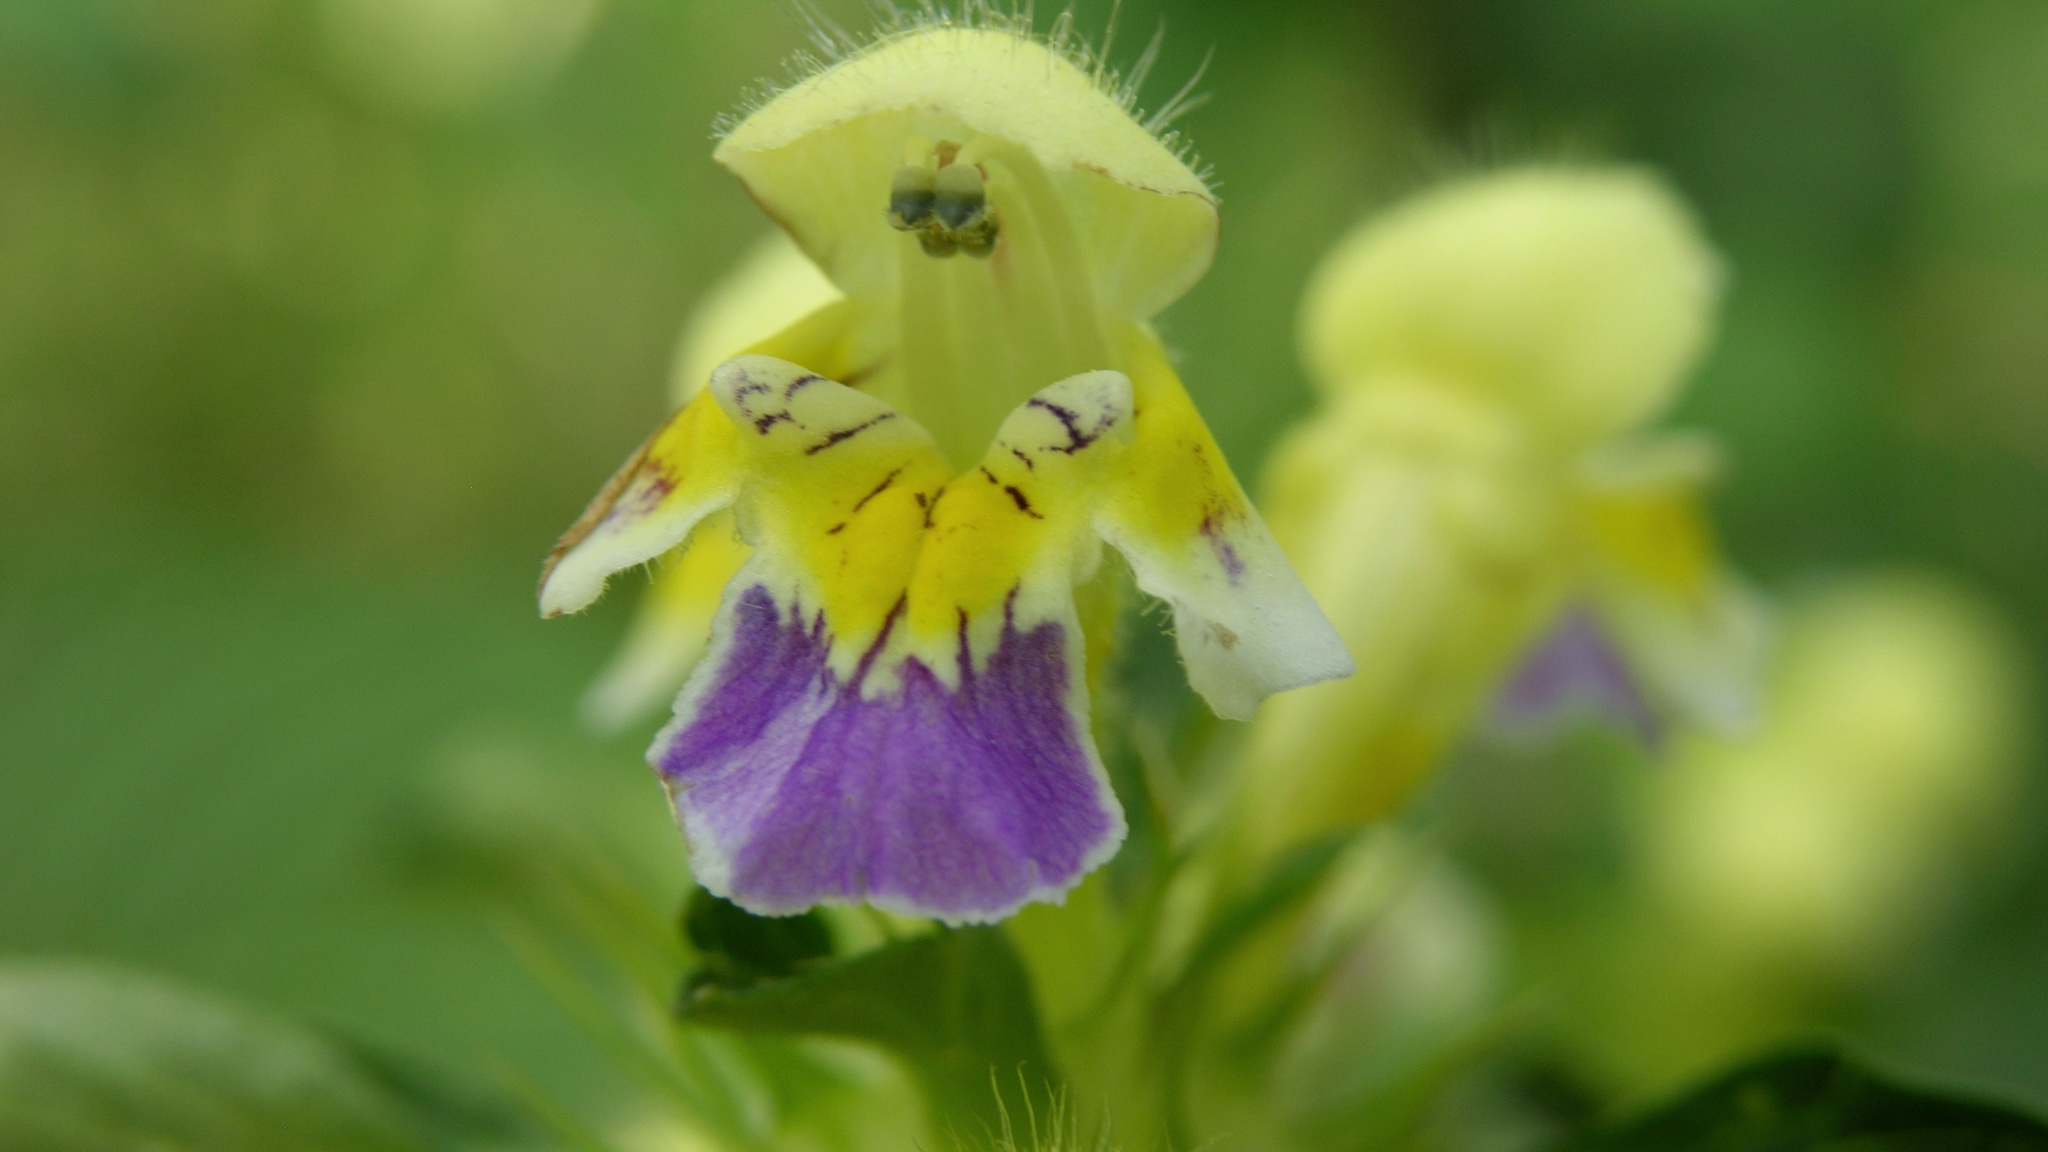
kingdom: Plantae
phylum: Tracheophyta
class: Magnoliopsida
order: Lamiales
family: Lamiaceae
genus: Galeopsis
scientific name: Galeopsis speciosa
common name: Large-flowered hemp-nettle
